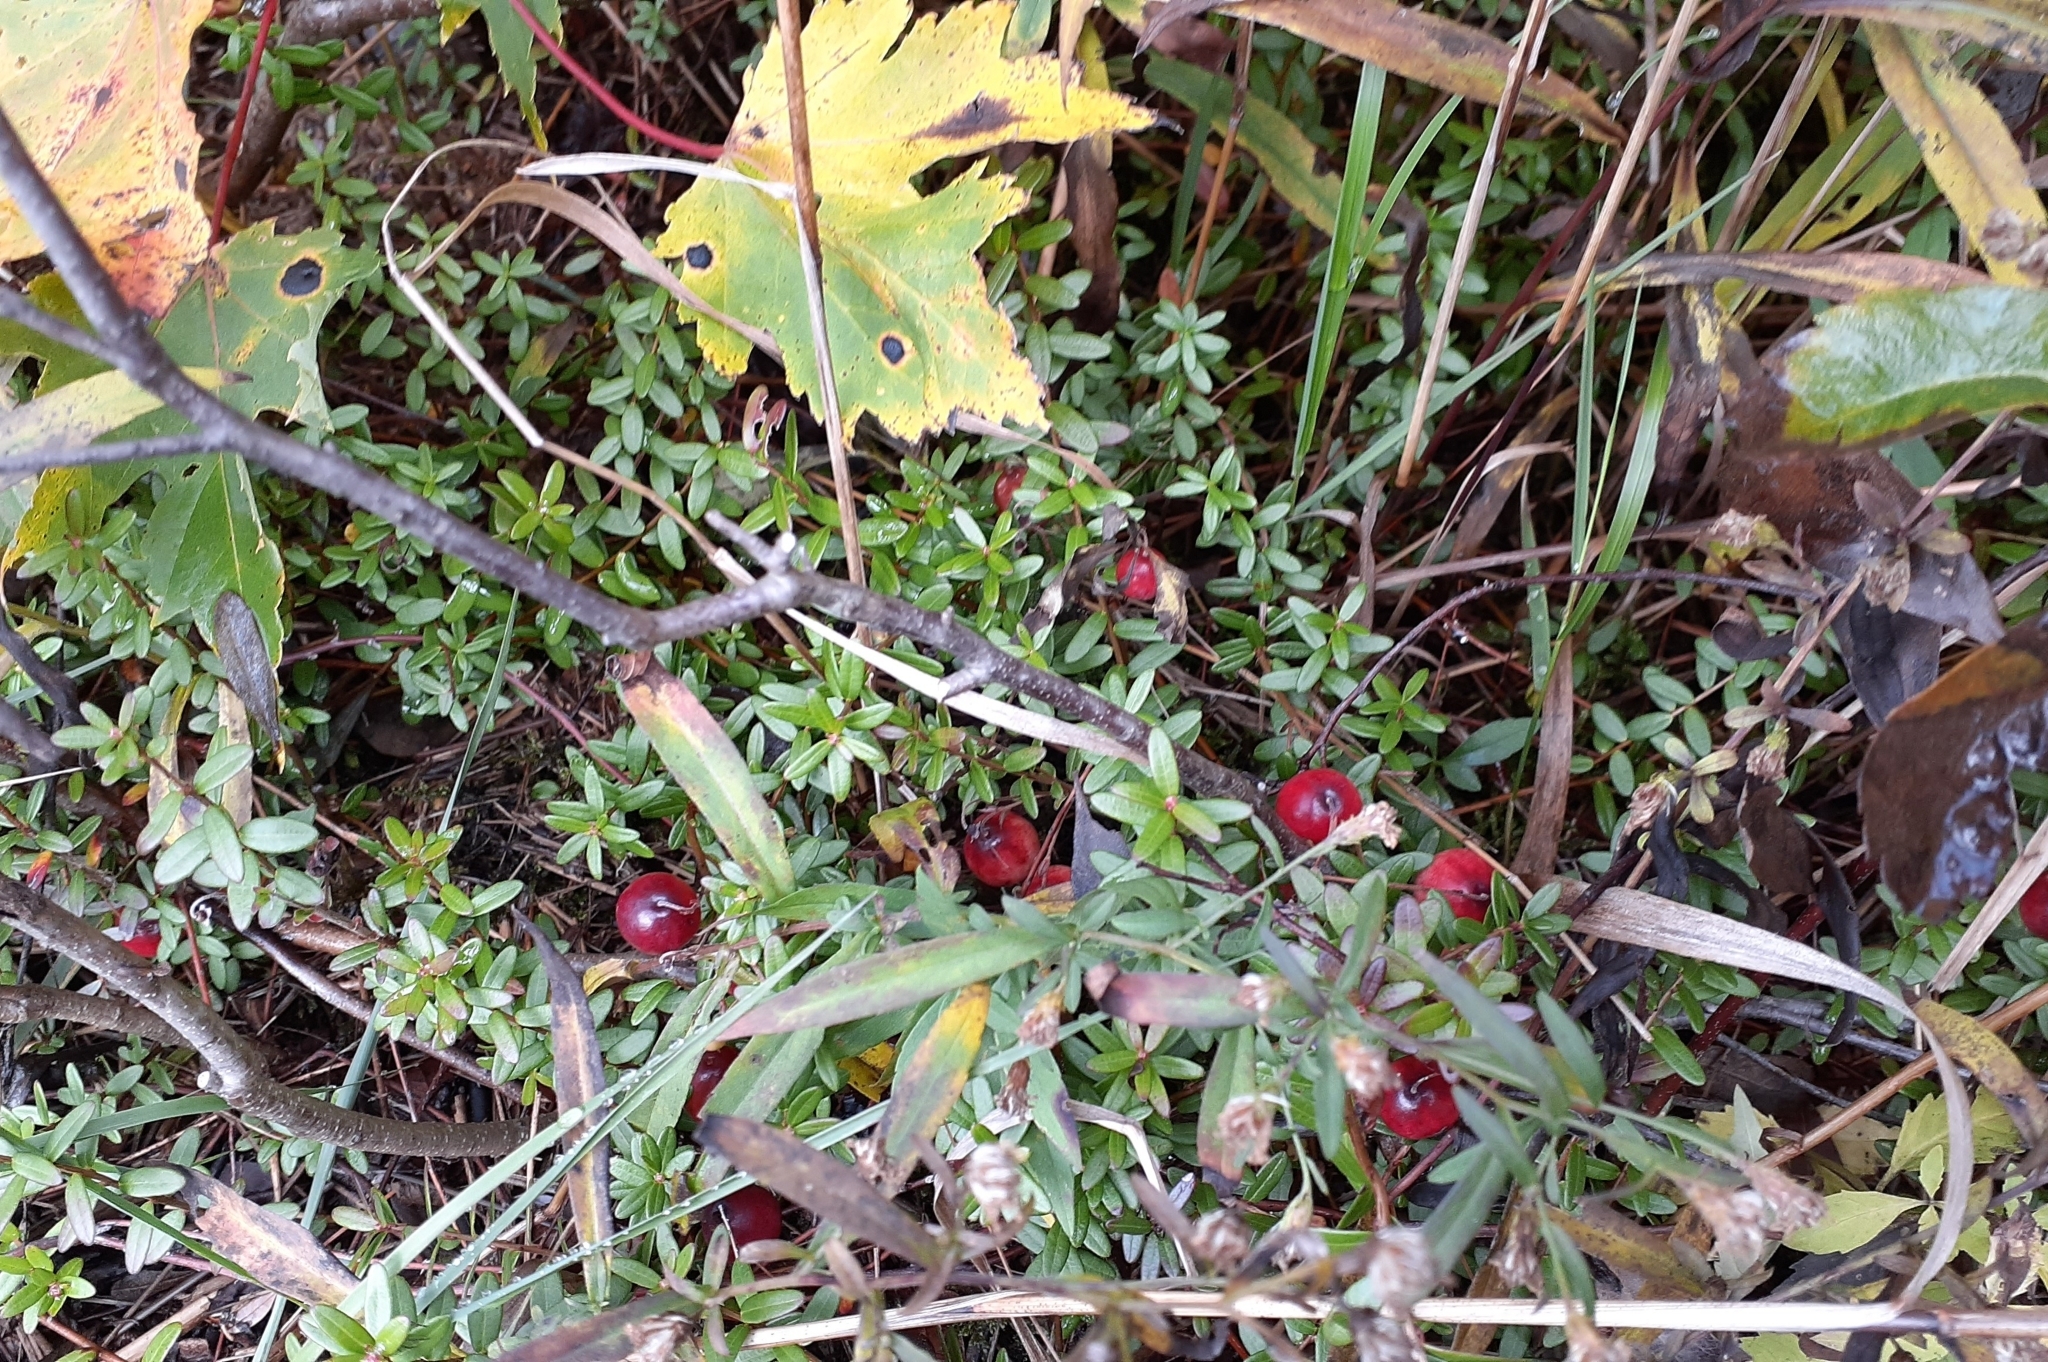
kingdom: Plantae
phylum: Tracheophyta
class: Magnoliopsida
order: Ericales
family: Ericaceae
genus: Vaccinium
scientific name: Vaccinium macrocarpon
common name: American cranberry
